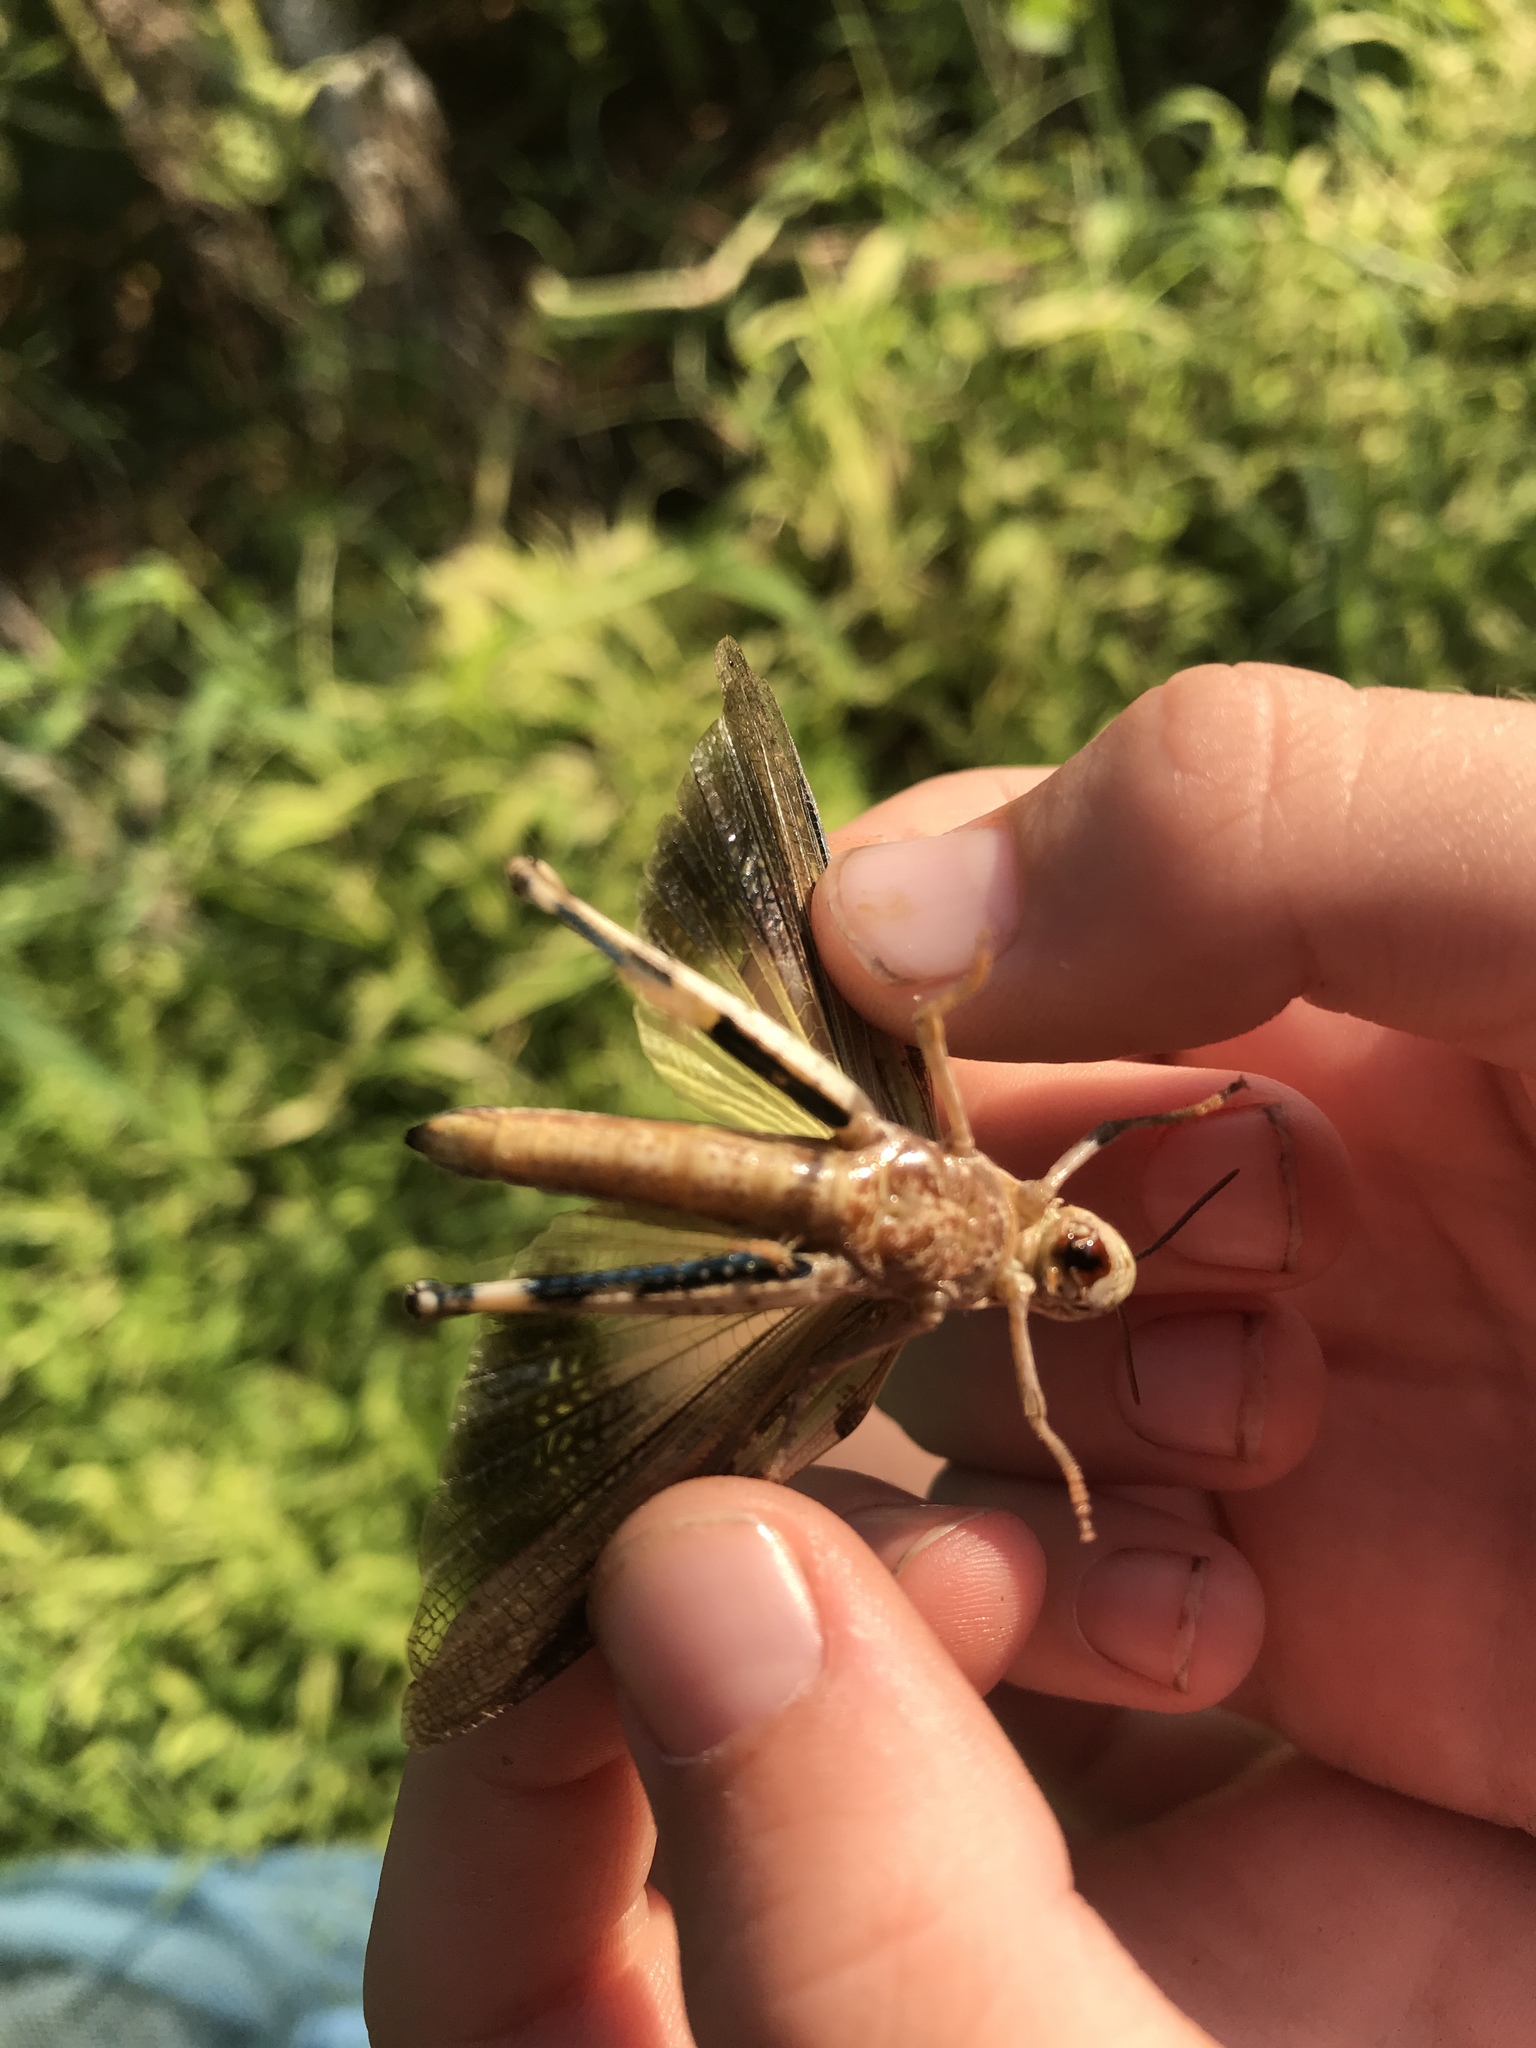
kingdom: Animalia
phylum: Arthropoda
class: Insecta
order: Orthoptera
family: Acrididae
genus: Chortophaga
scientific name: Chortophaga viridifasciata
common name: Green-striped grasshopper
